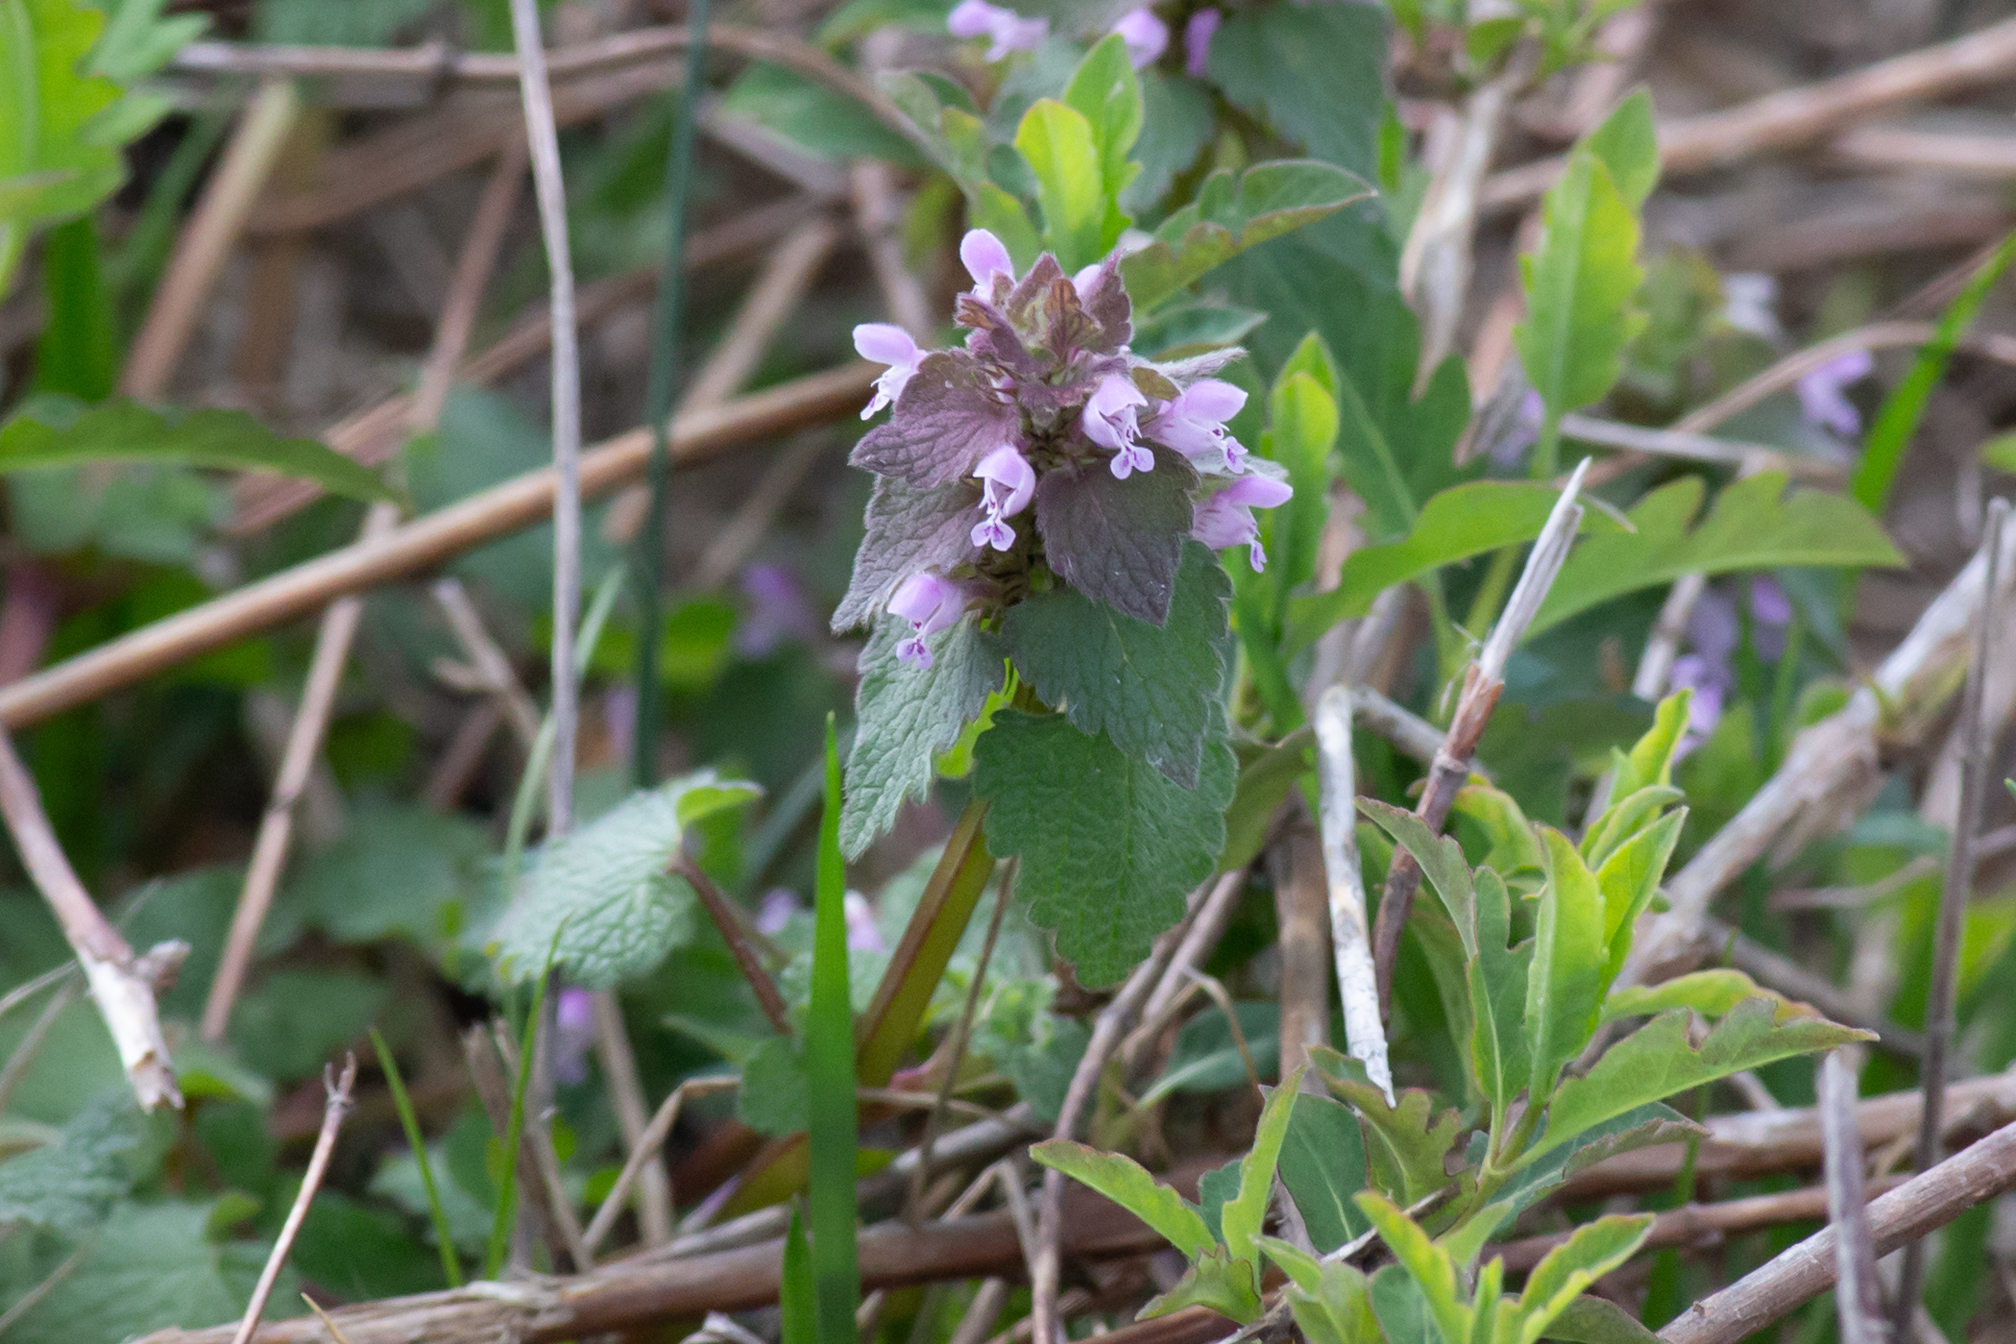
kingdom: Plantae
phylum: Tracheophyta
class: Magnoliopsida
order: Lamiales
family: Lamiaceae
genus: Lamium
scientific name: Lamium purpureum
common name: Red dead-nettle
